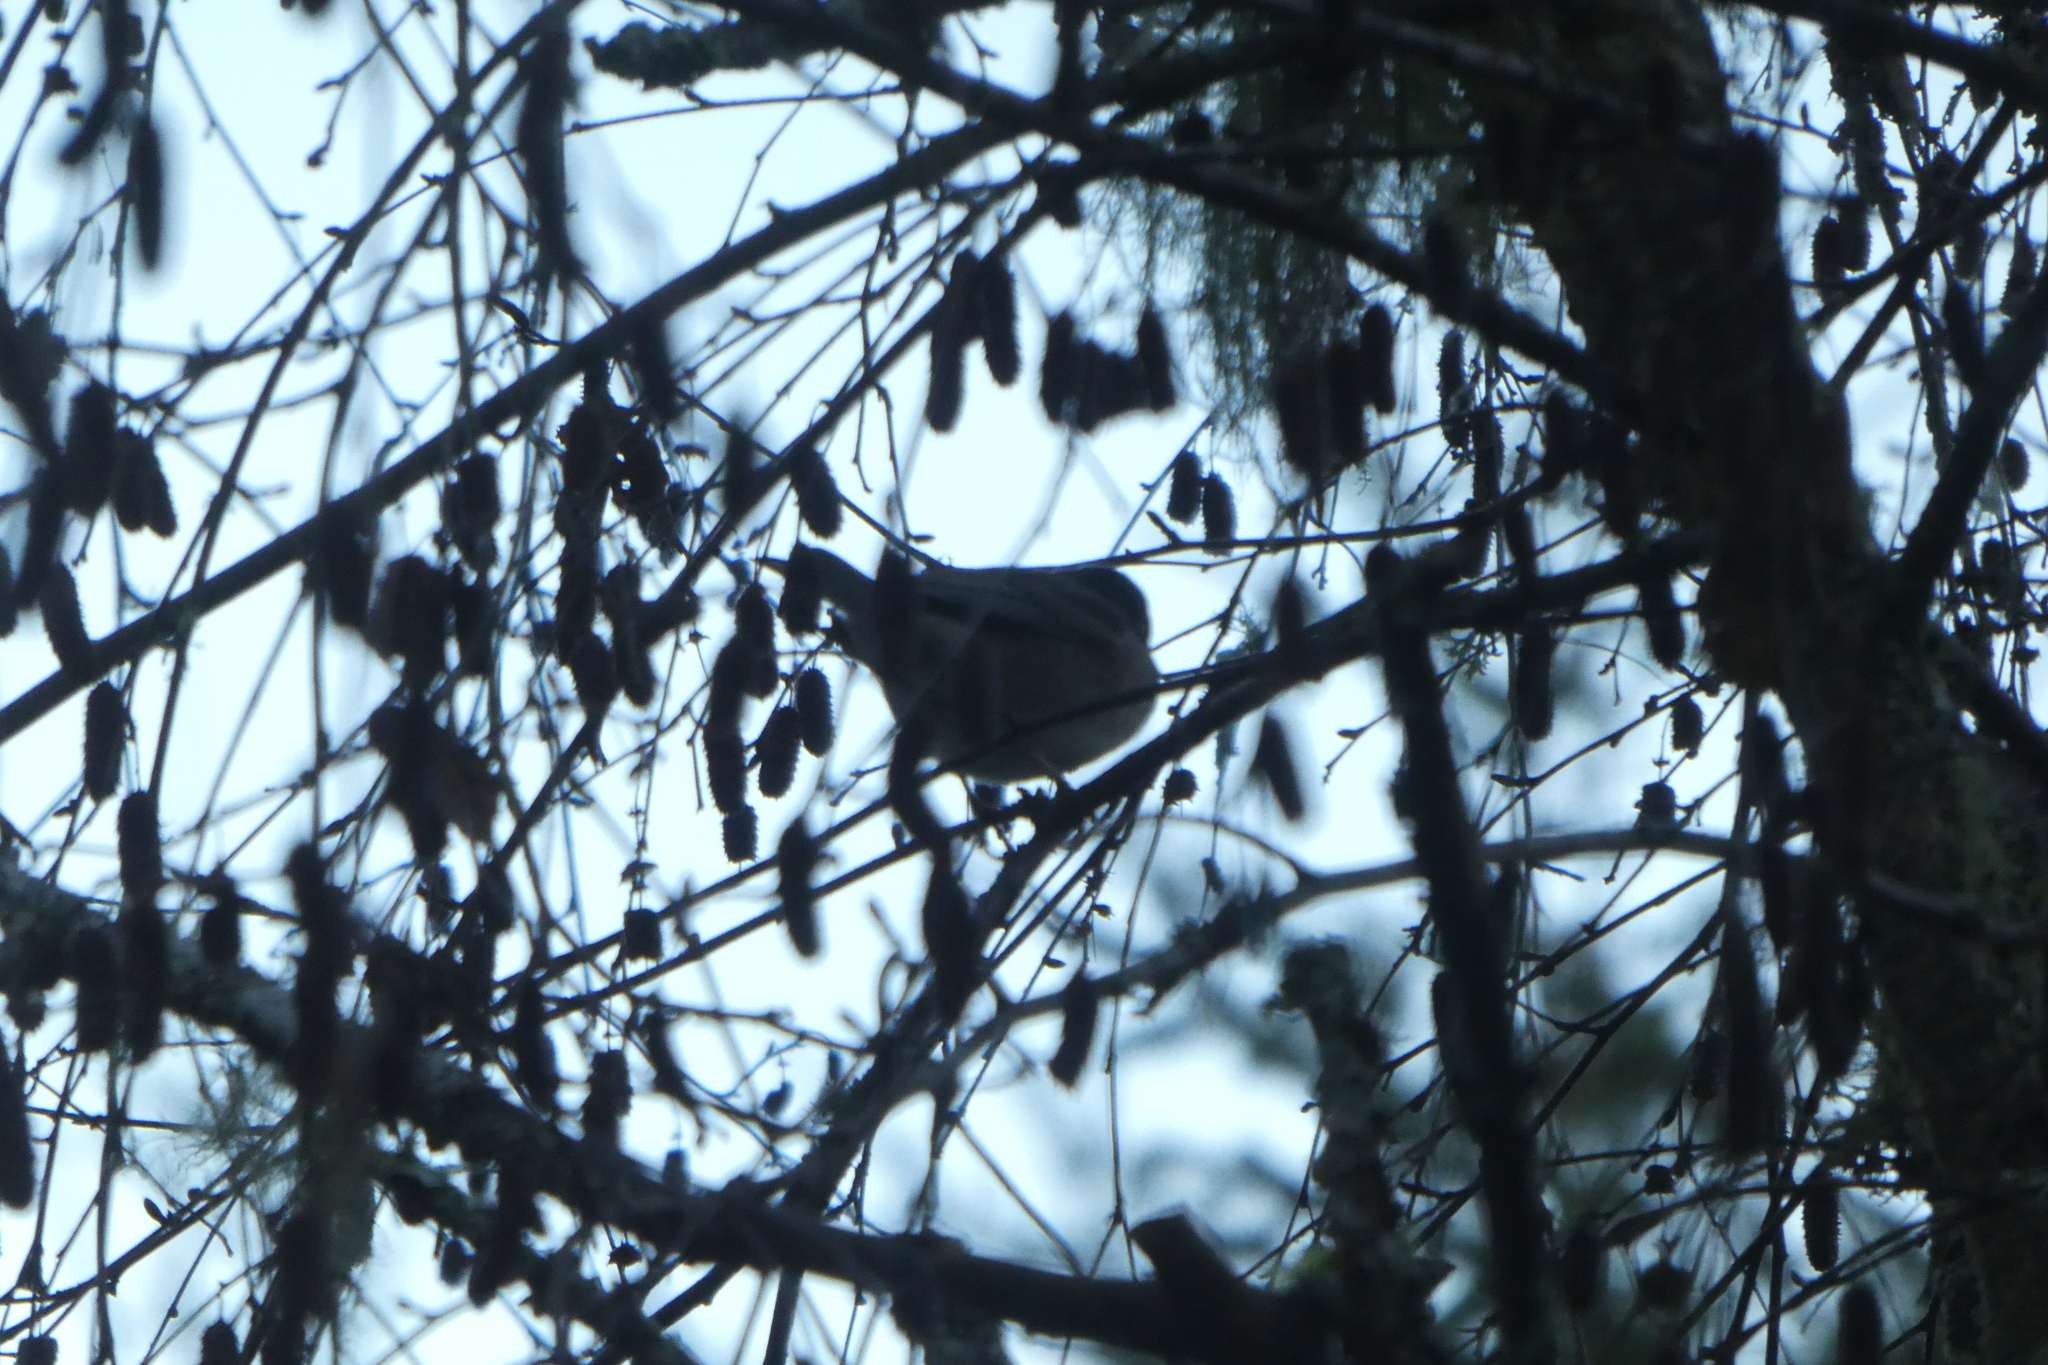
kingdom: Animalia
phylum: Chordata
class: Aves
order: Passeriformes
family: Passerellidae
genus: Junco
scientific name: Junco hyemalis
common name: Dark-eyed junco
